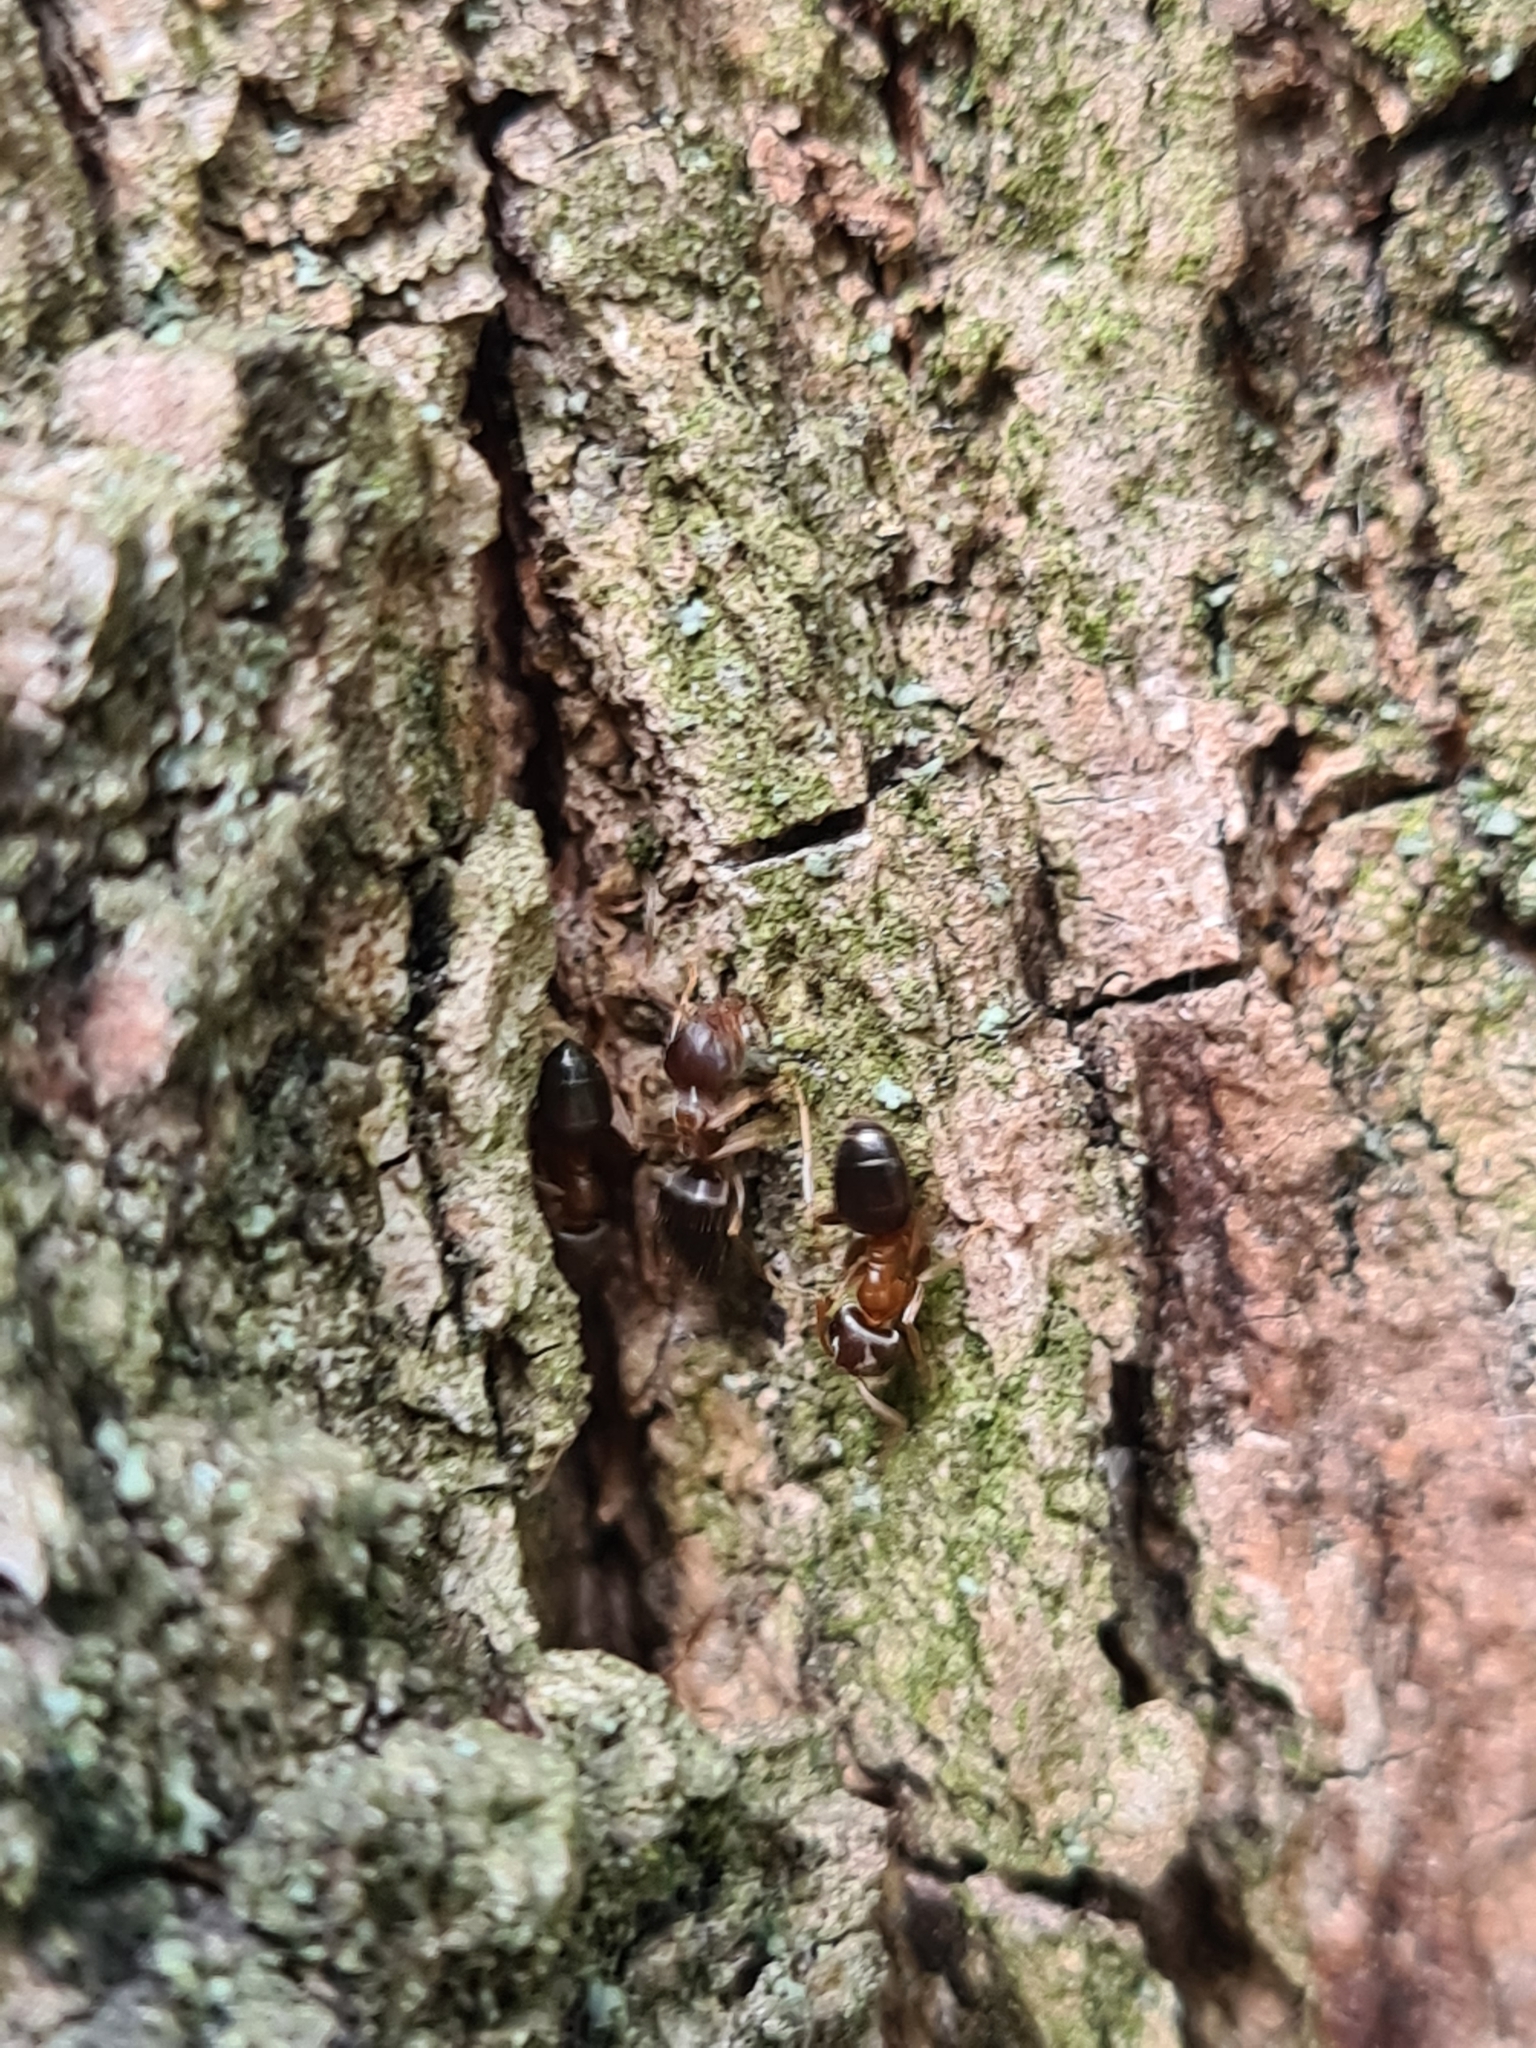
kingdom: Animalia
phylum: Arthropoda
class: Insecta
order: Hymenoptera
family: Formicidae
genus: Lasius
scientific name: Lasius brunneus
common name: Brown ant
